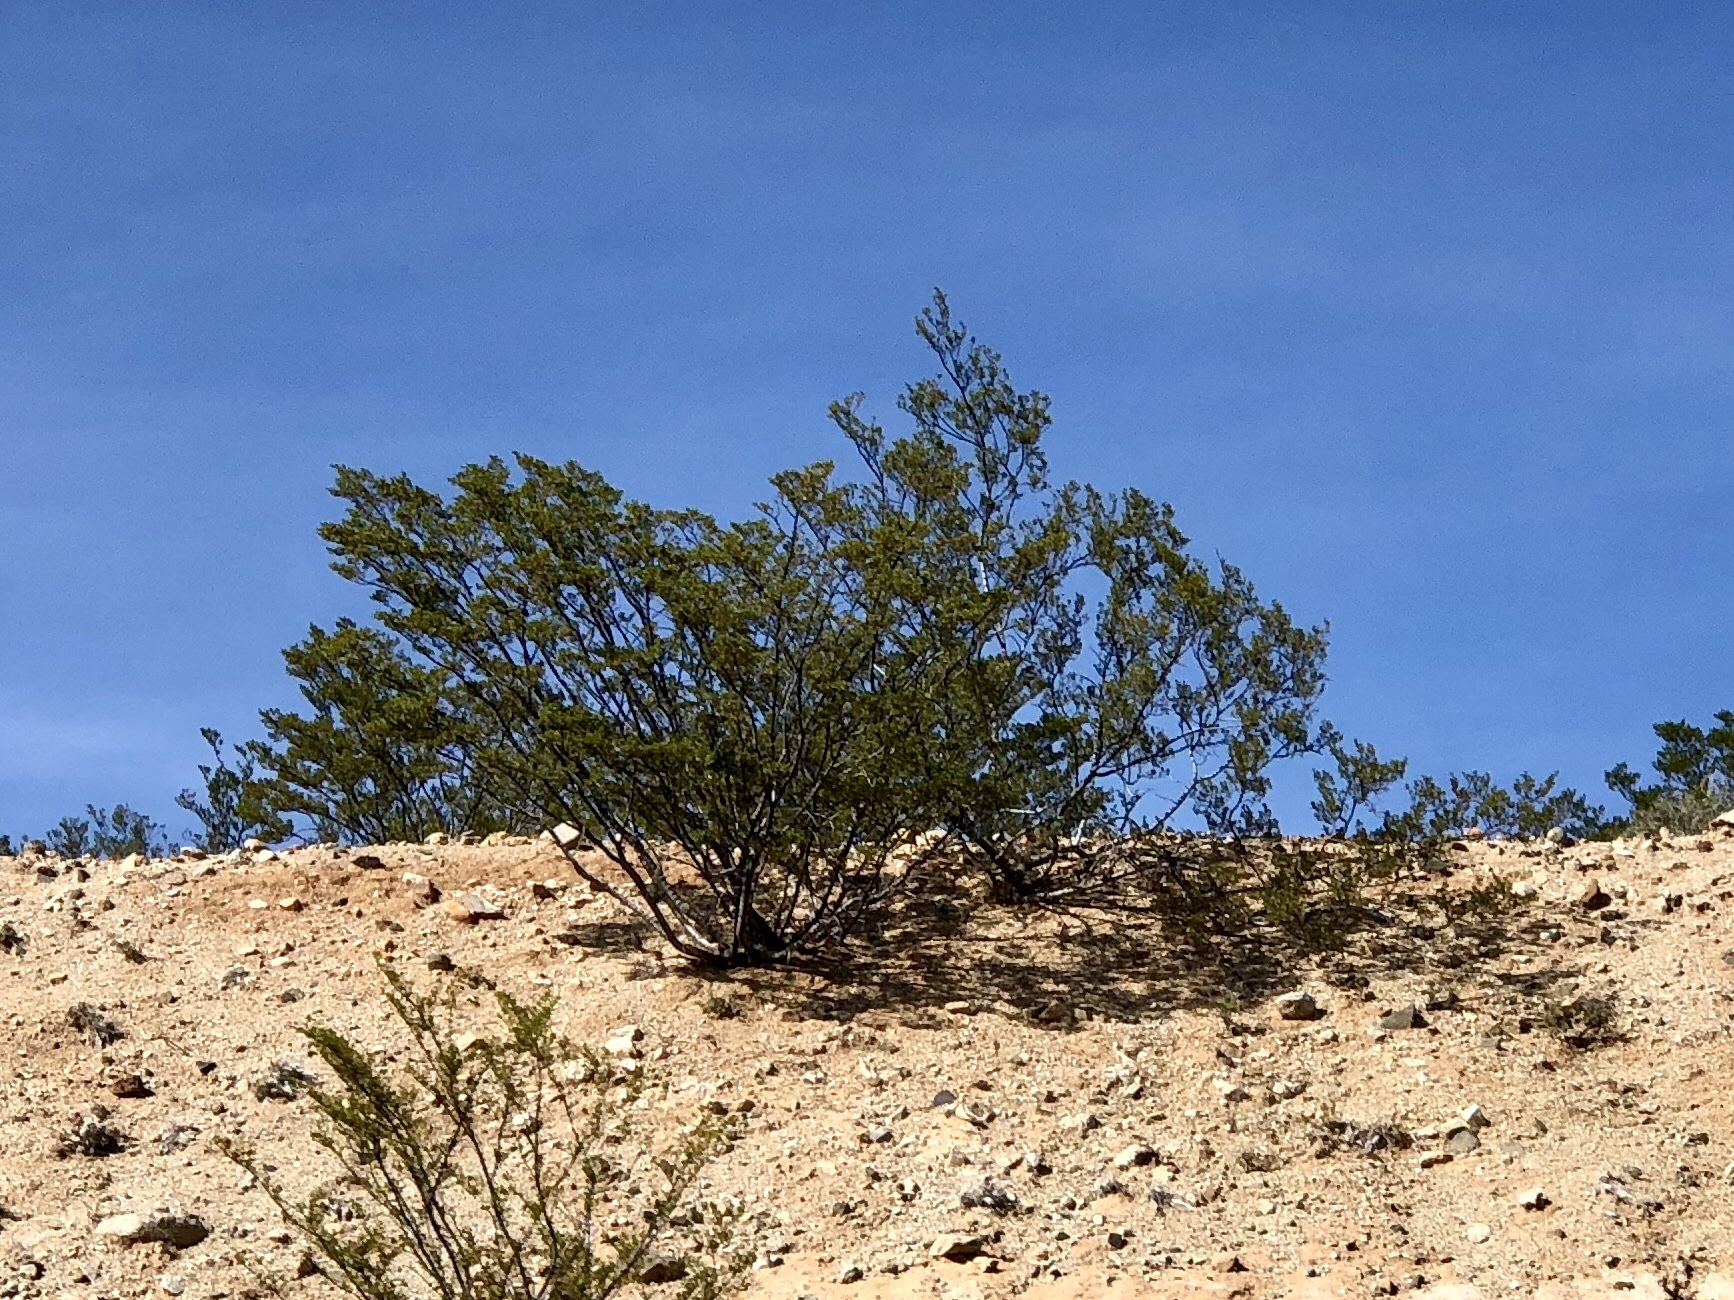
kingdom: Plantae
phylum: Tracheophyta
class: Magnoliopsida
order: Zygophyllales
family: Zygophyllaceae
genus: Larrea
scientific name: Larrea tridentata
